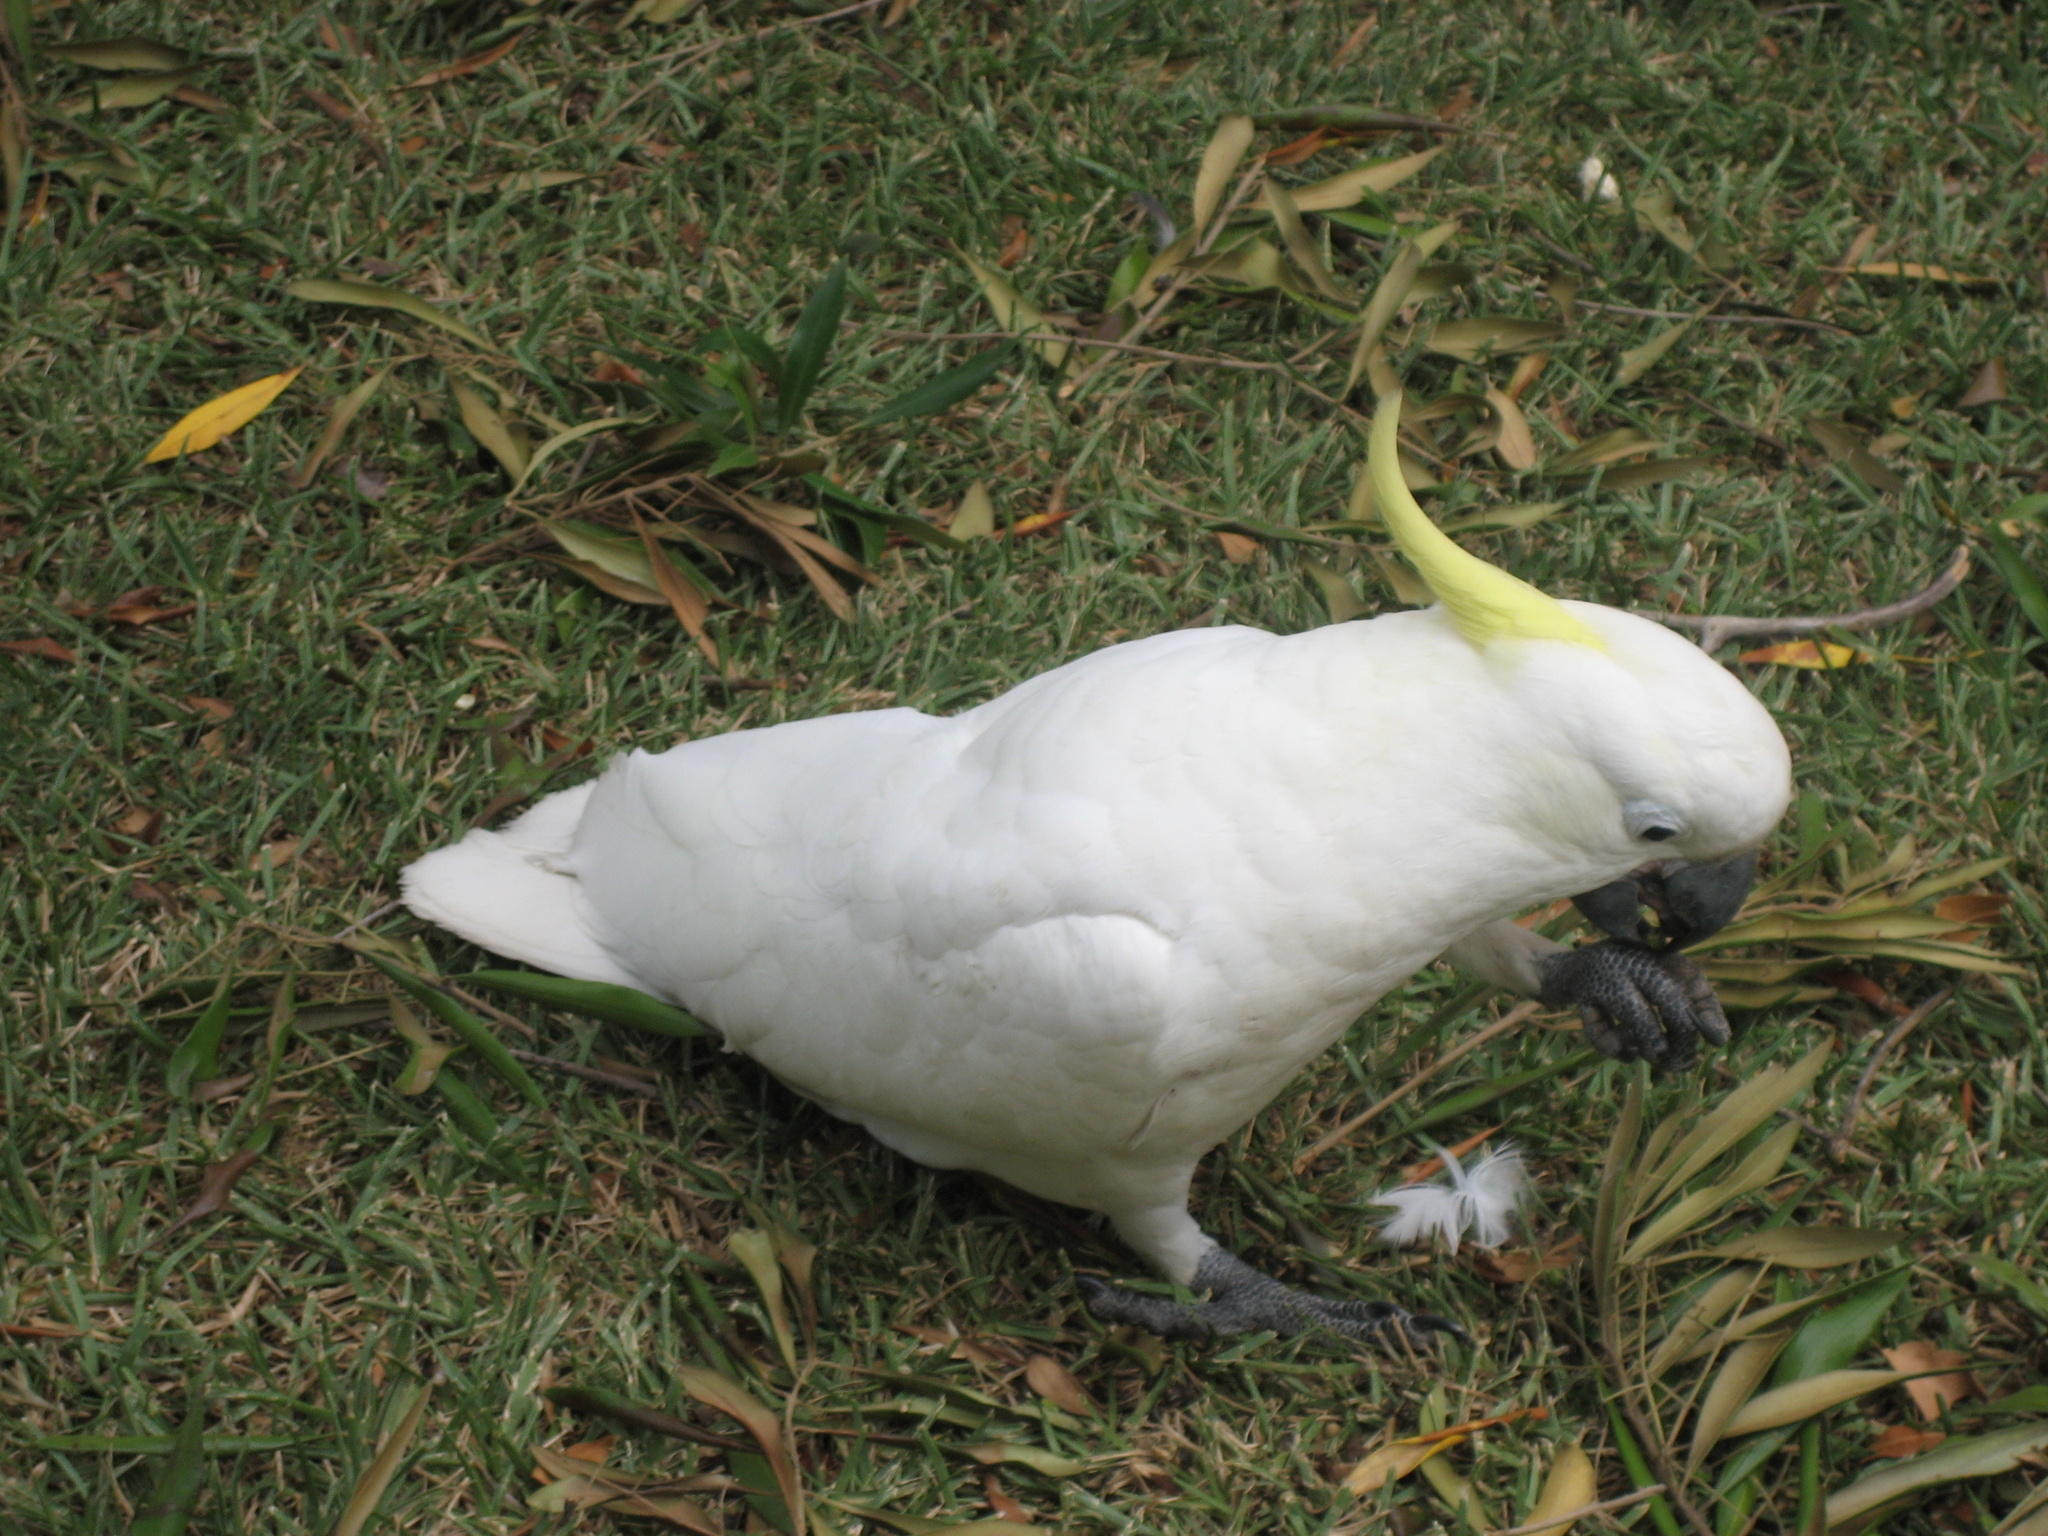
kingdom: Animalia
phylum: Chordata
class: Aves
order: Psittaciformes
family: Psittacidae
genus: Cacatua
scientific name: Cacatua galerita
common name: Sulphur-crested cockatoo
